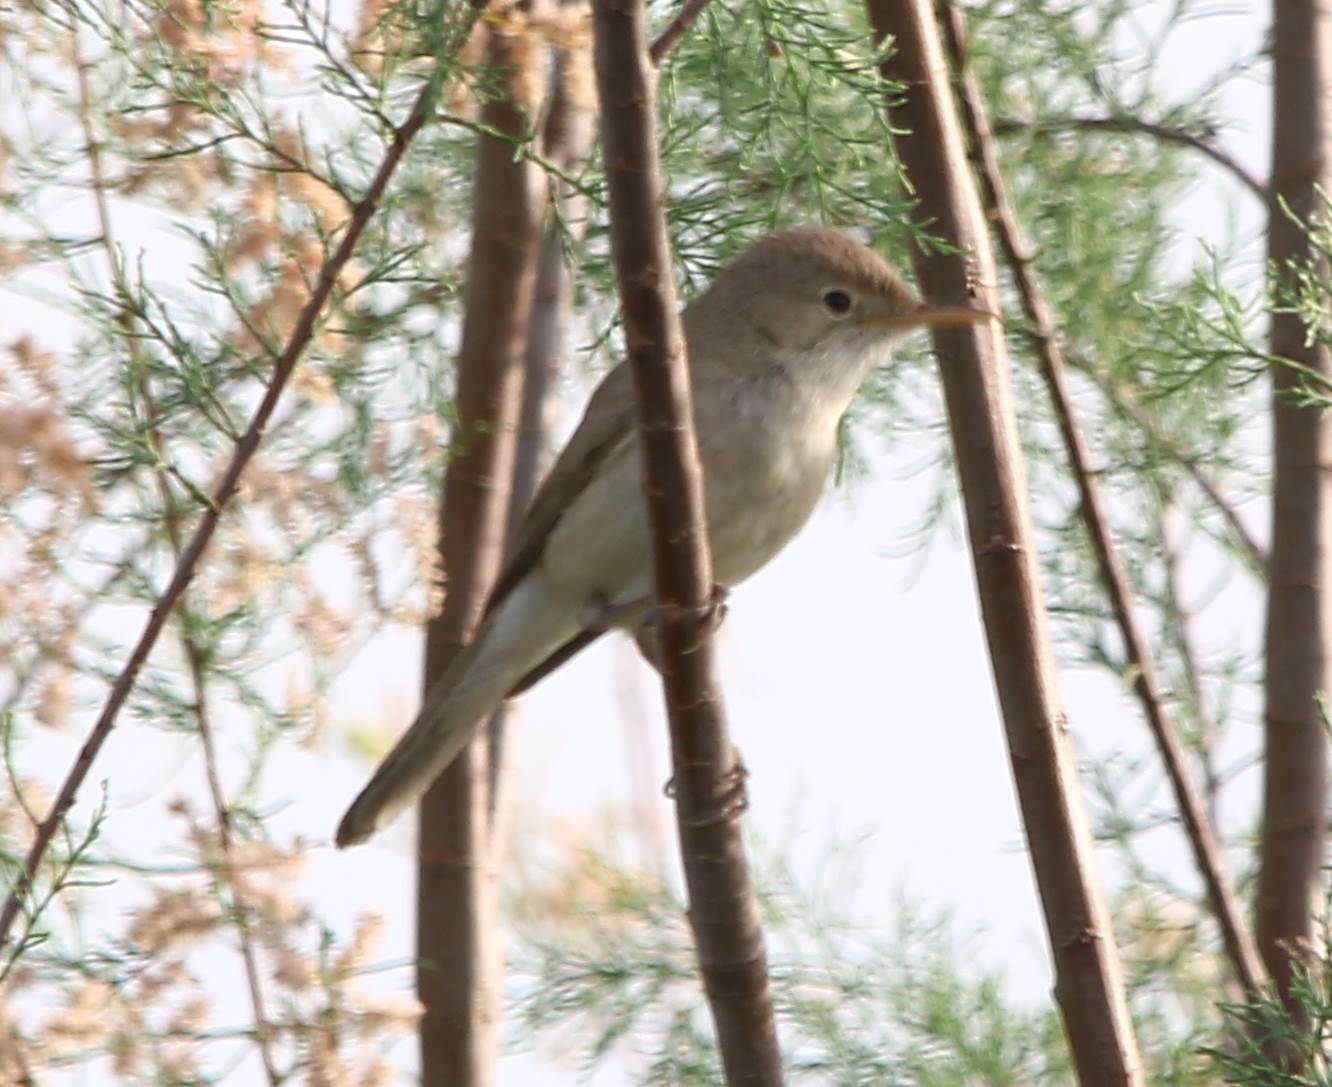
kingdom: Animalia
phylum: Chordata
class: Aves
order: Passeriformes
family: Acrocephalidae
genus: Acrocephalus
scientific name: Acrocephalus scirpaceus
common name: Eurasian reed warbler
